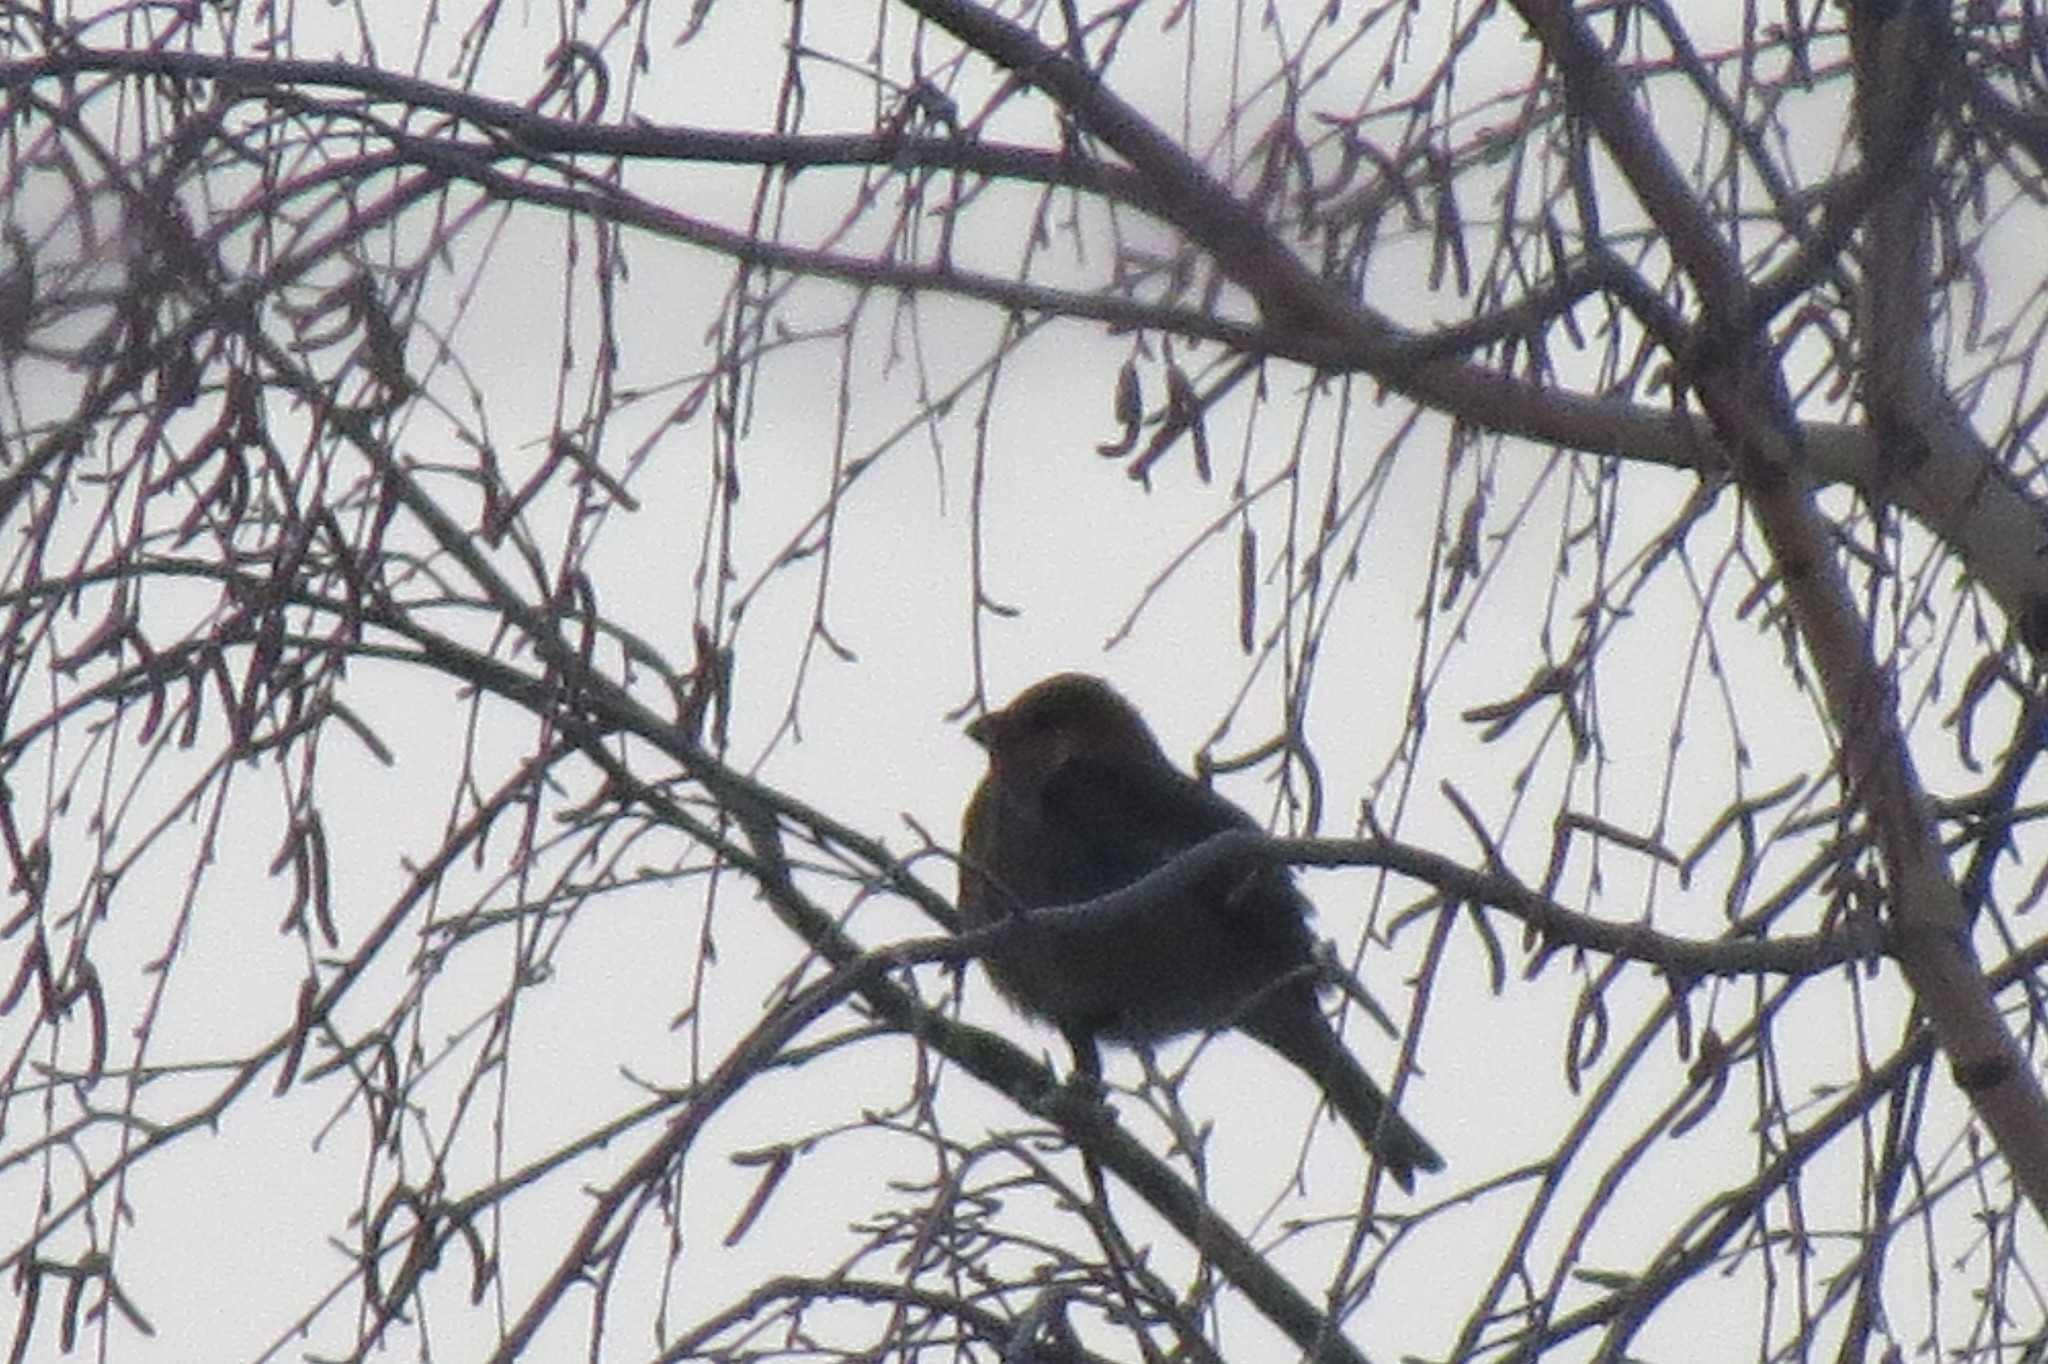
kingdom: Animalia
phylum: Chordata
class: Aves
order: Passeriformes
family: Fringillidae
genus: Pinicola
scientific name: Pinicola enucleator
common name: Pine grosbeak
